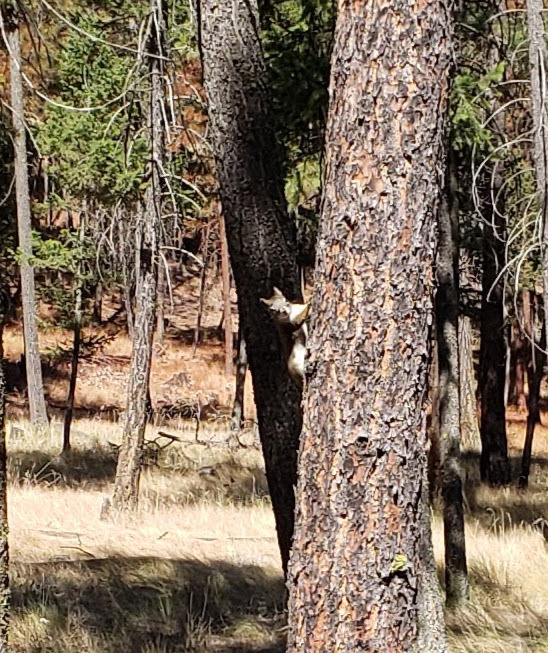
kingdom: Animalia
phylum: Chordata
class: Mammalia
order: Rodentia
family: Sciuridae
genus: Tamiasciurus
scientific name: Tamiasciurus hudsonicus
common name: Red squirrel
